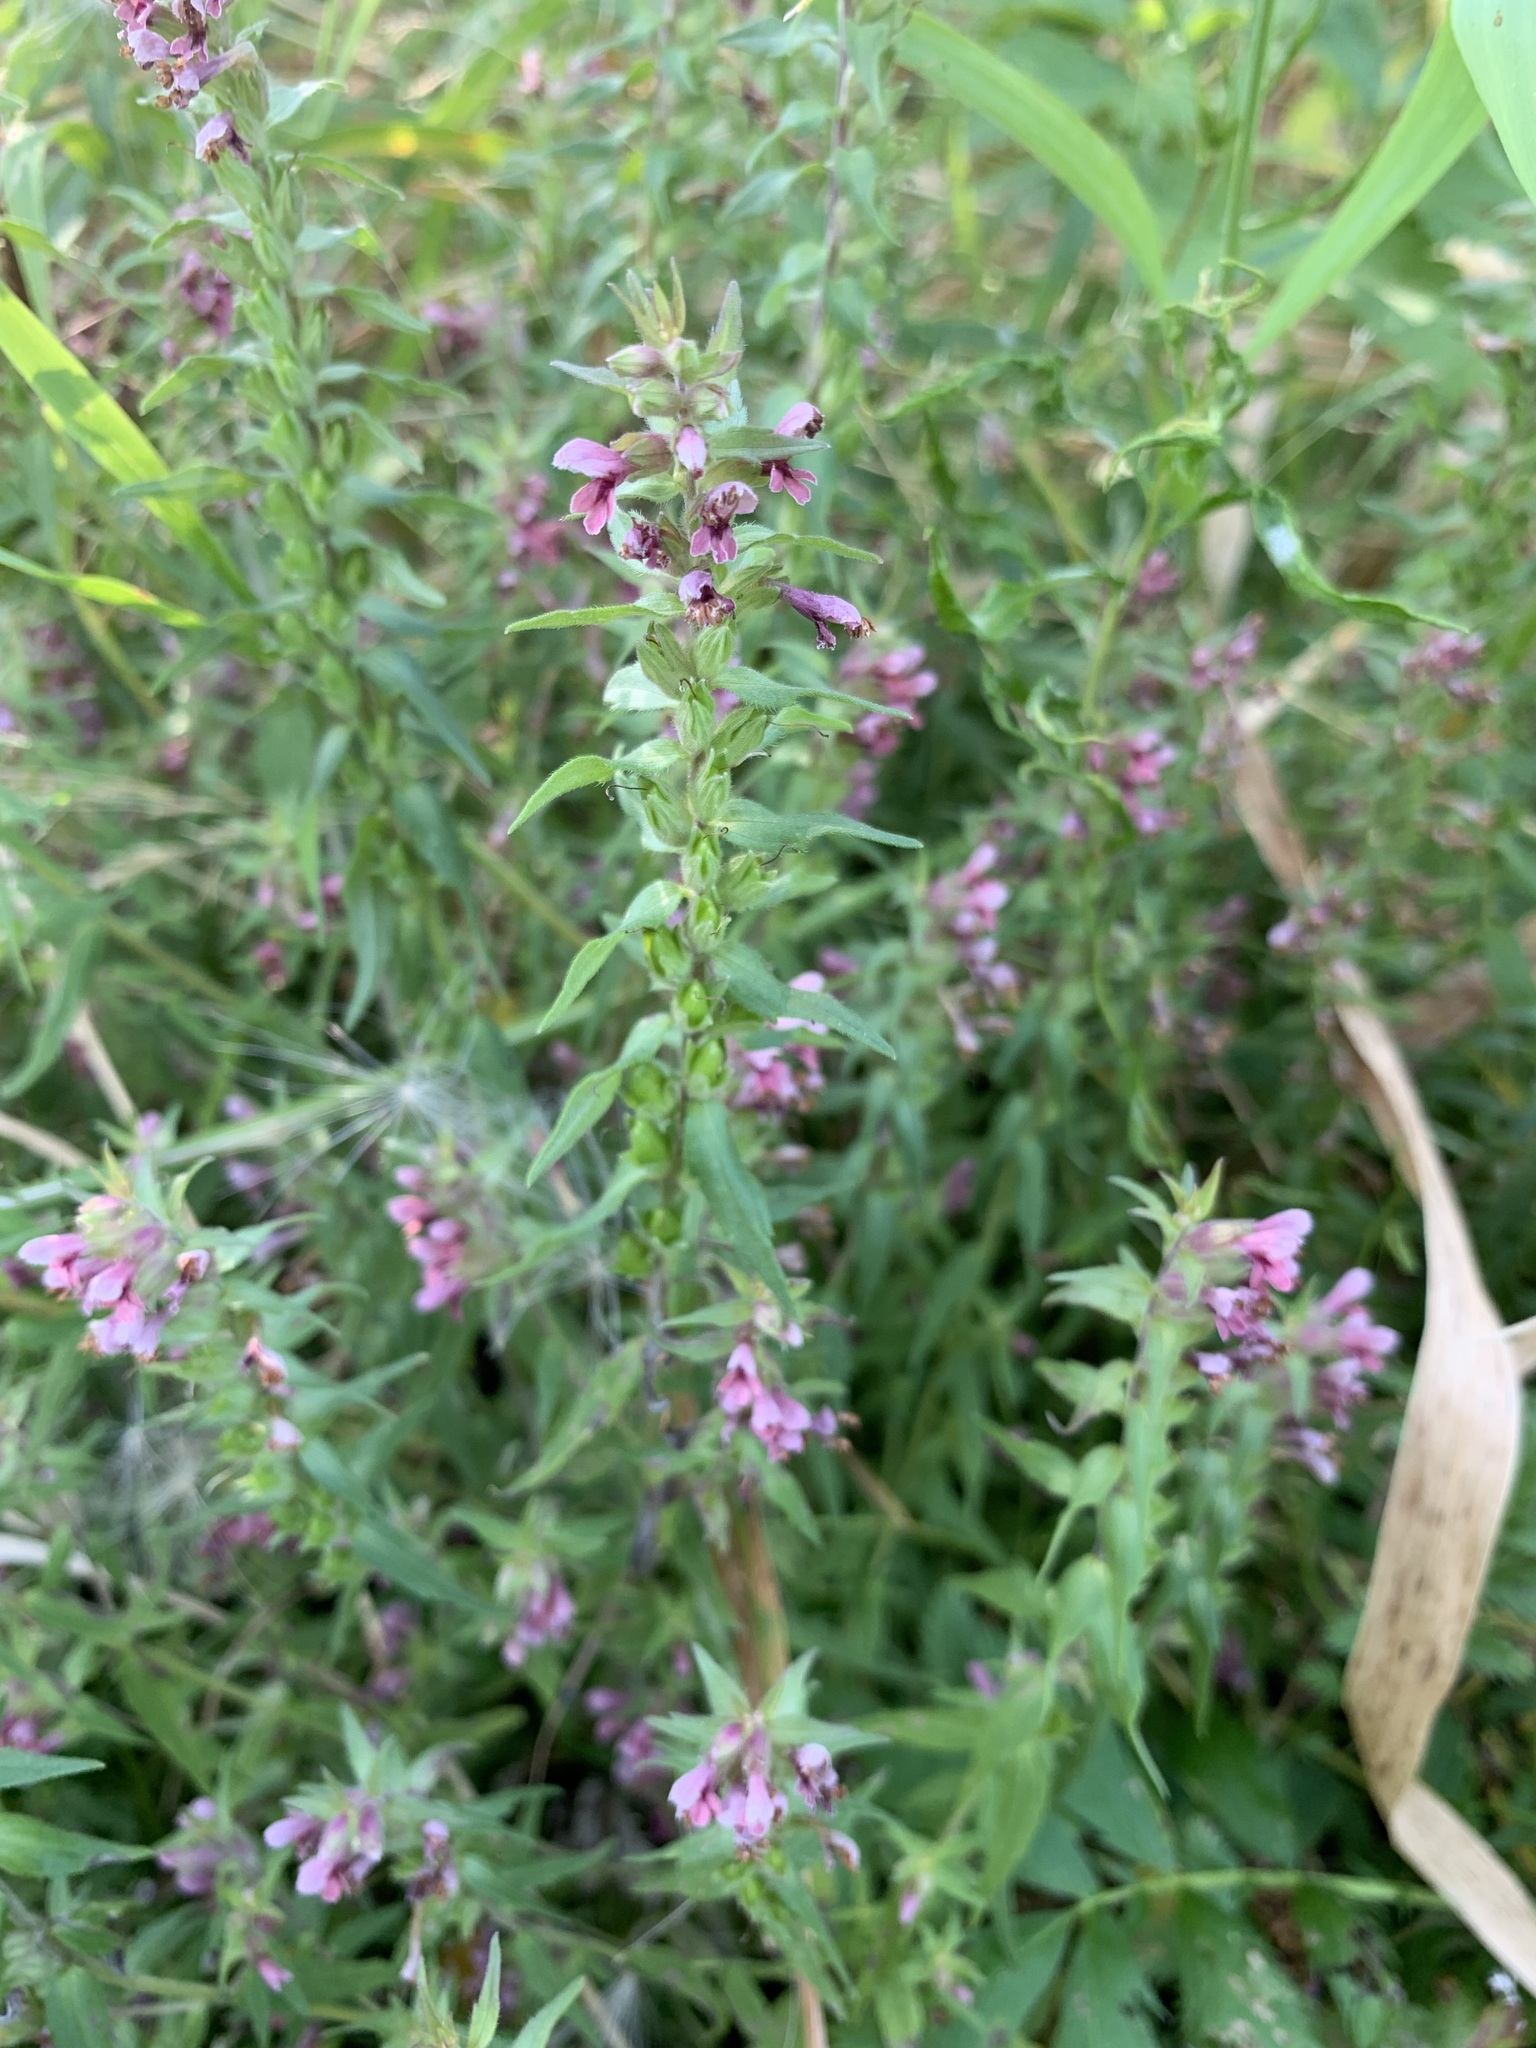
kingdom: Plantae
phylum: Tracheophyta
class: Magnoliopsida
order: Lamiales
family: Orobanchaceae
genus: Odontites
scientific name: Odontites vulgaris
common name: Broomrape
